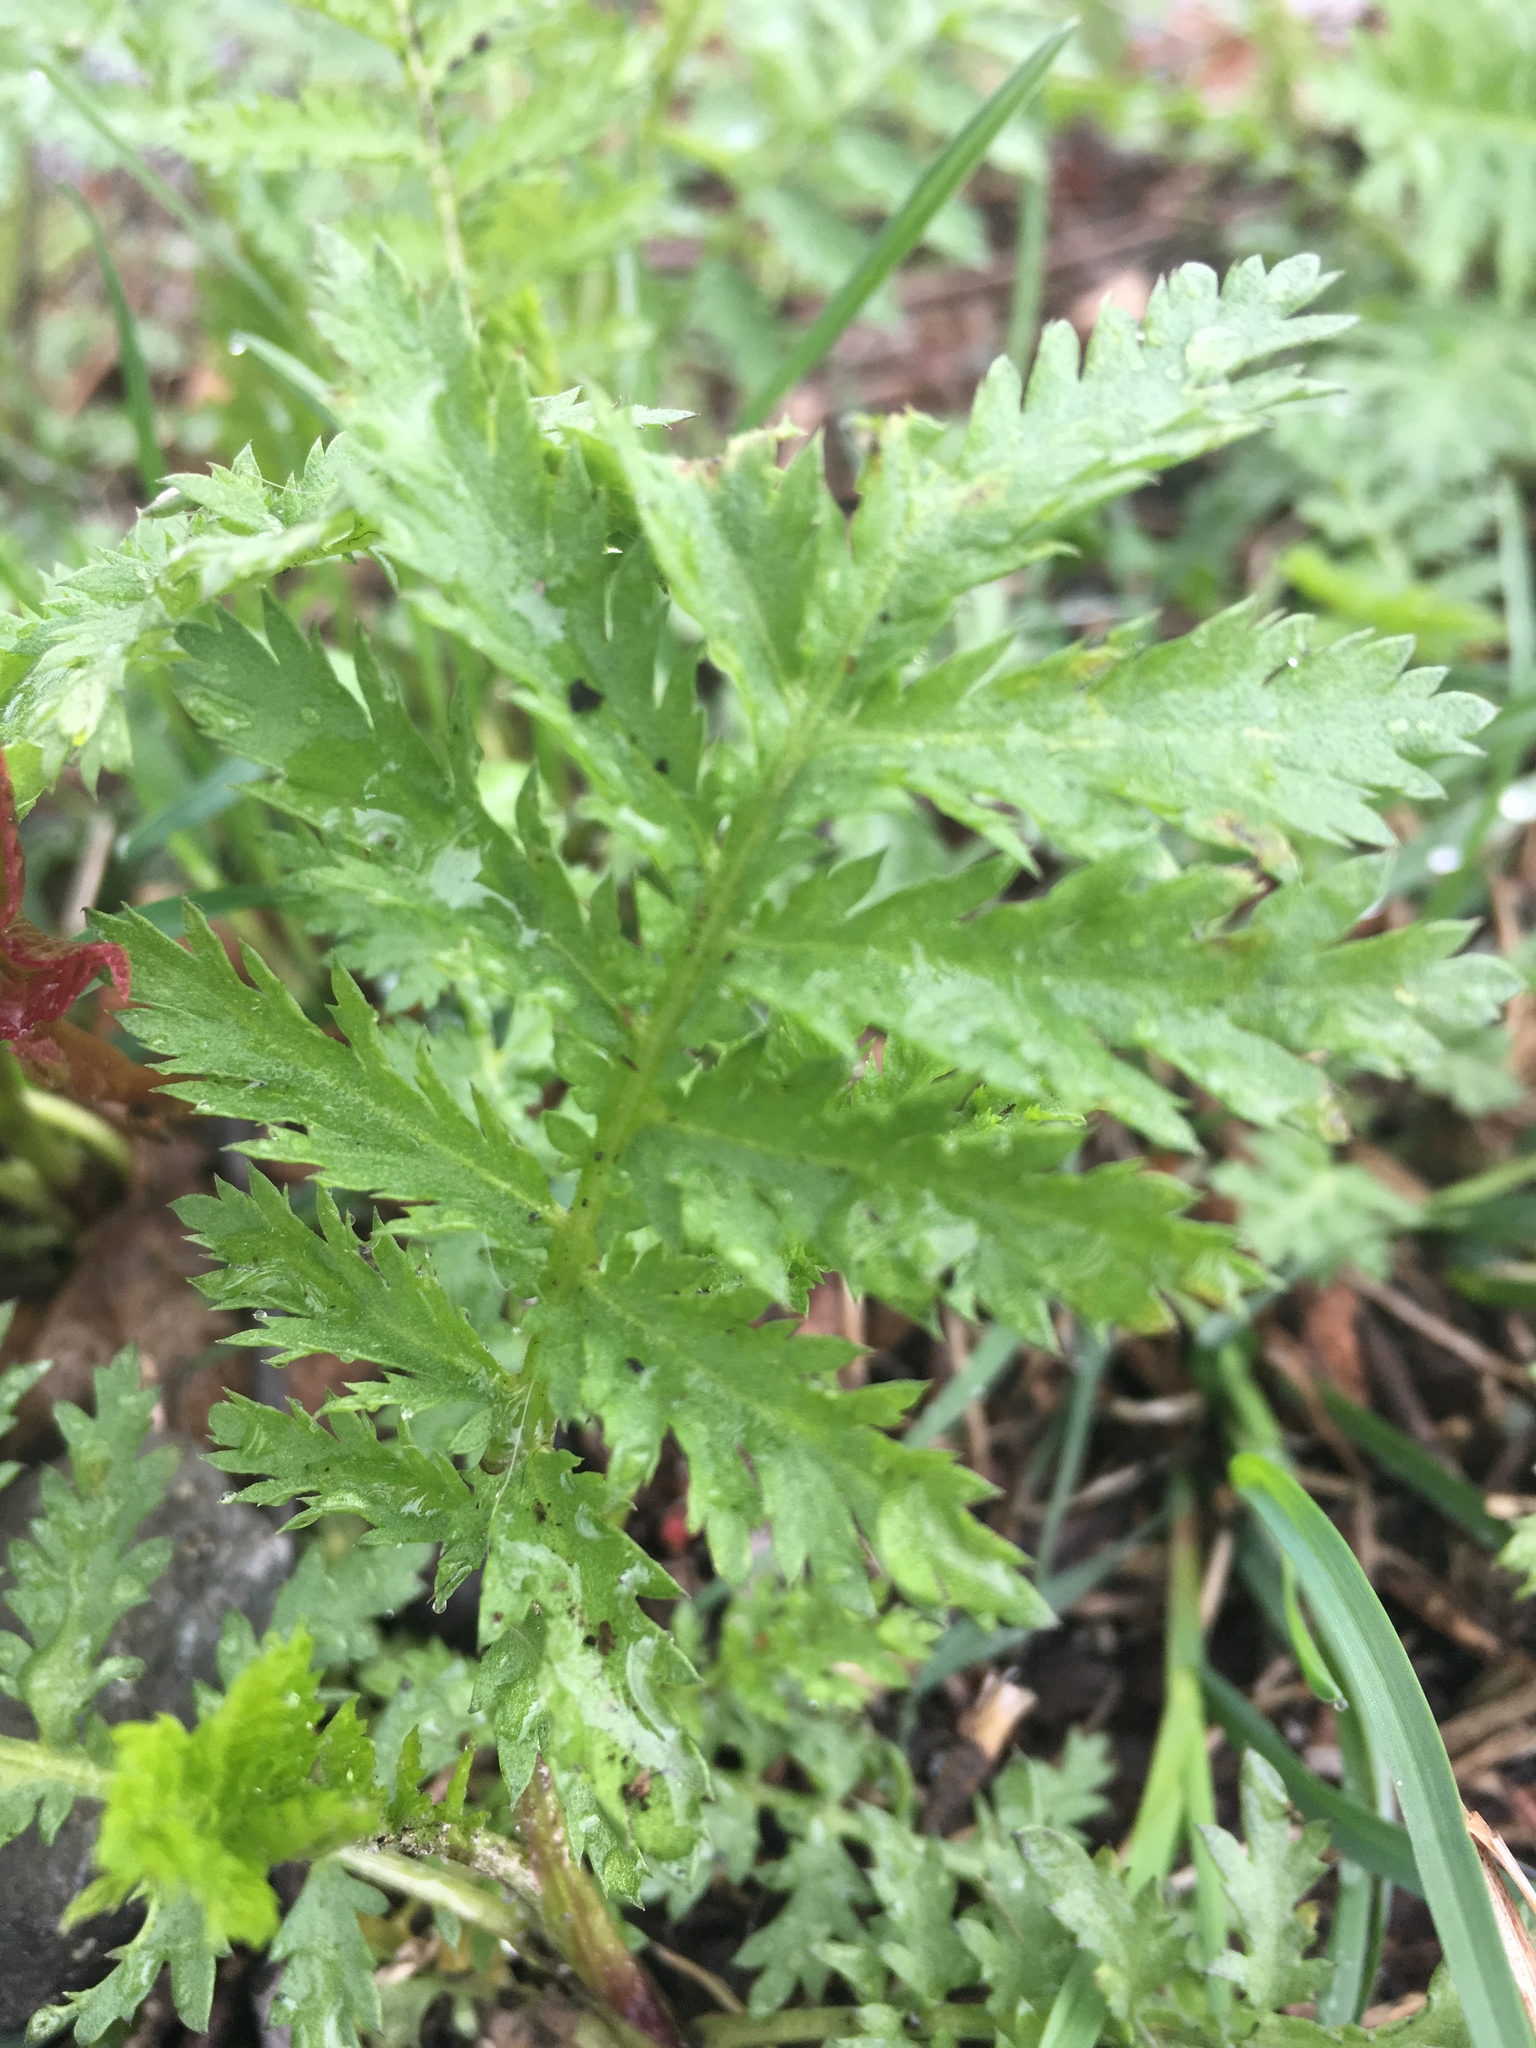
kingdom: Plantae
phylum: Tracheophyta
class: Magnoliopsida
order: Asterales
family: Asteraceae
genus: Tanacetum
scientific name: Tanacetum vulgare
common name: Common tansy
